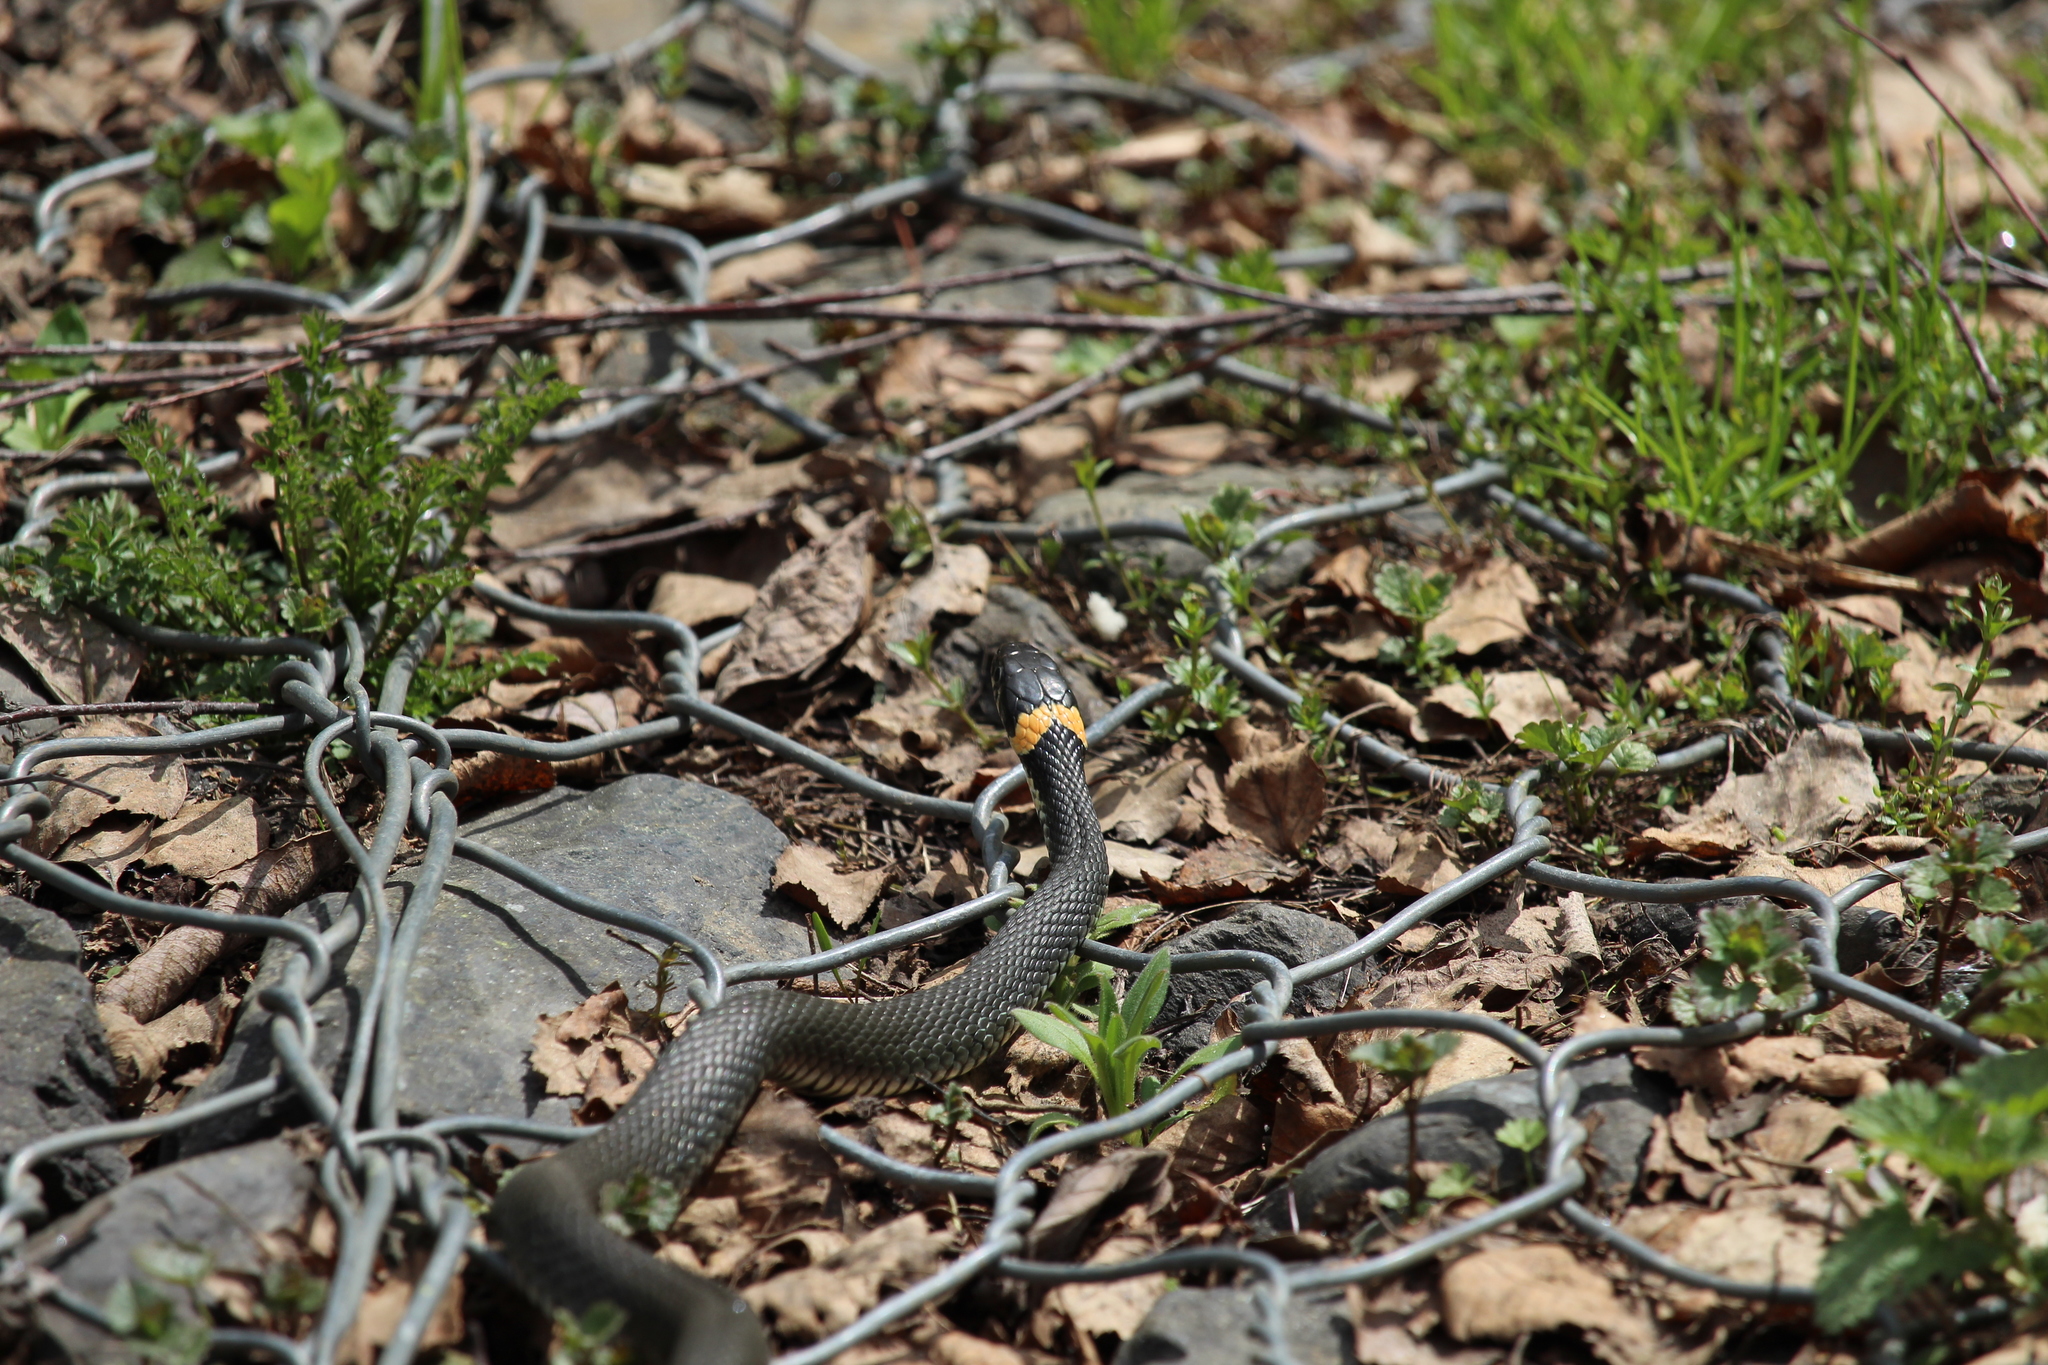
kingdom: Animalia
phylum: Chordata
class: Squamata
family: Colubridae
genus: Natrix
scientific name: Natrix natrix
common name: Grass snake
